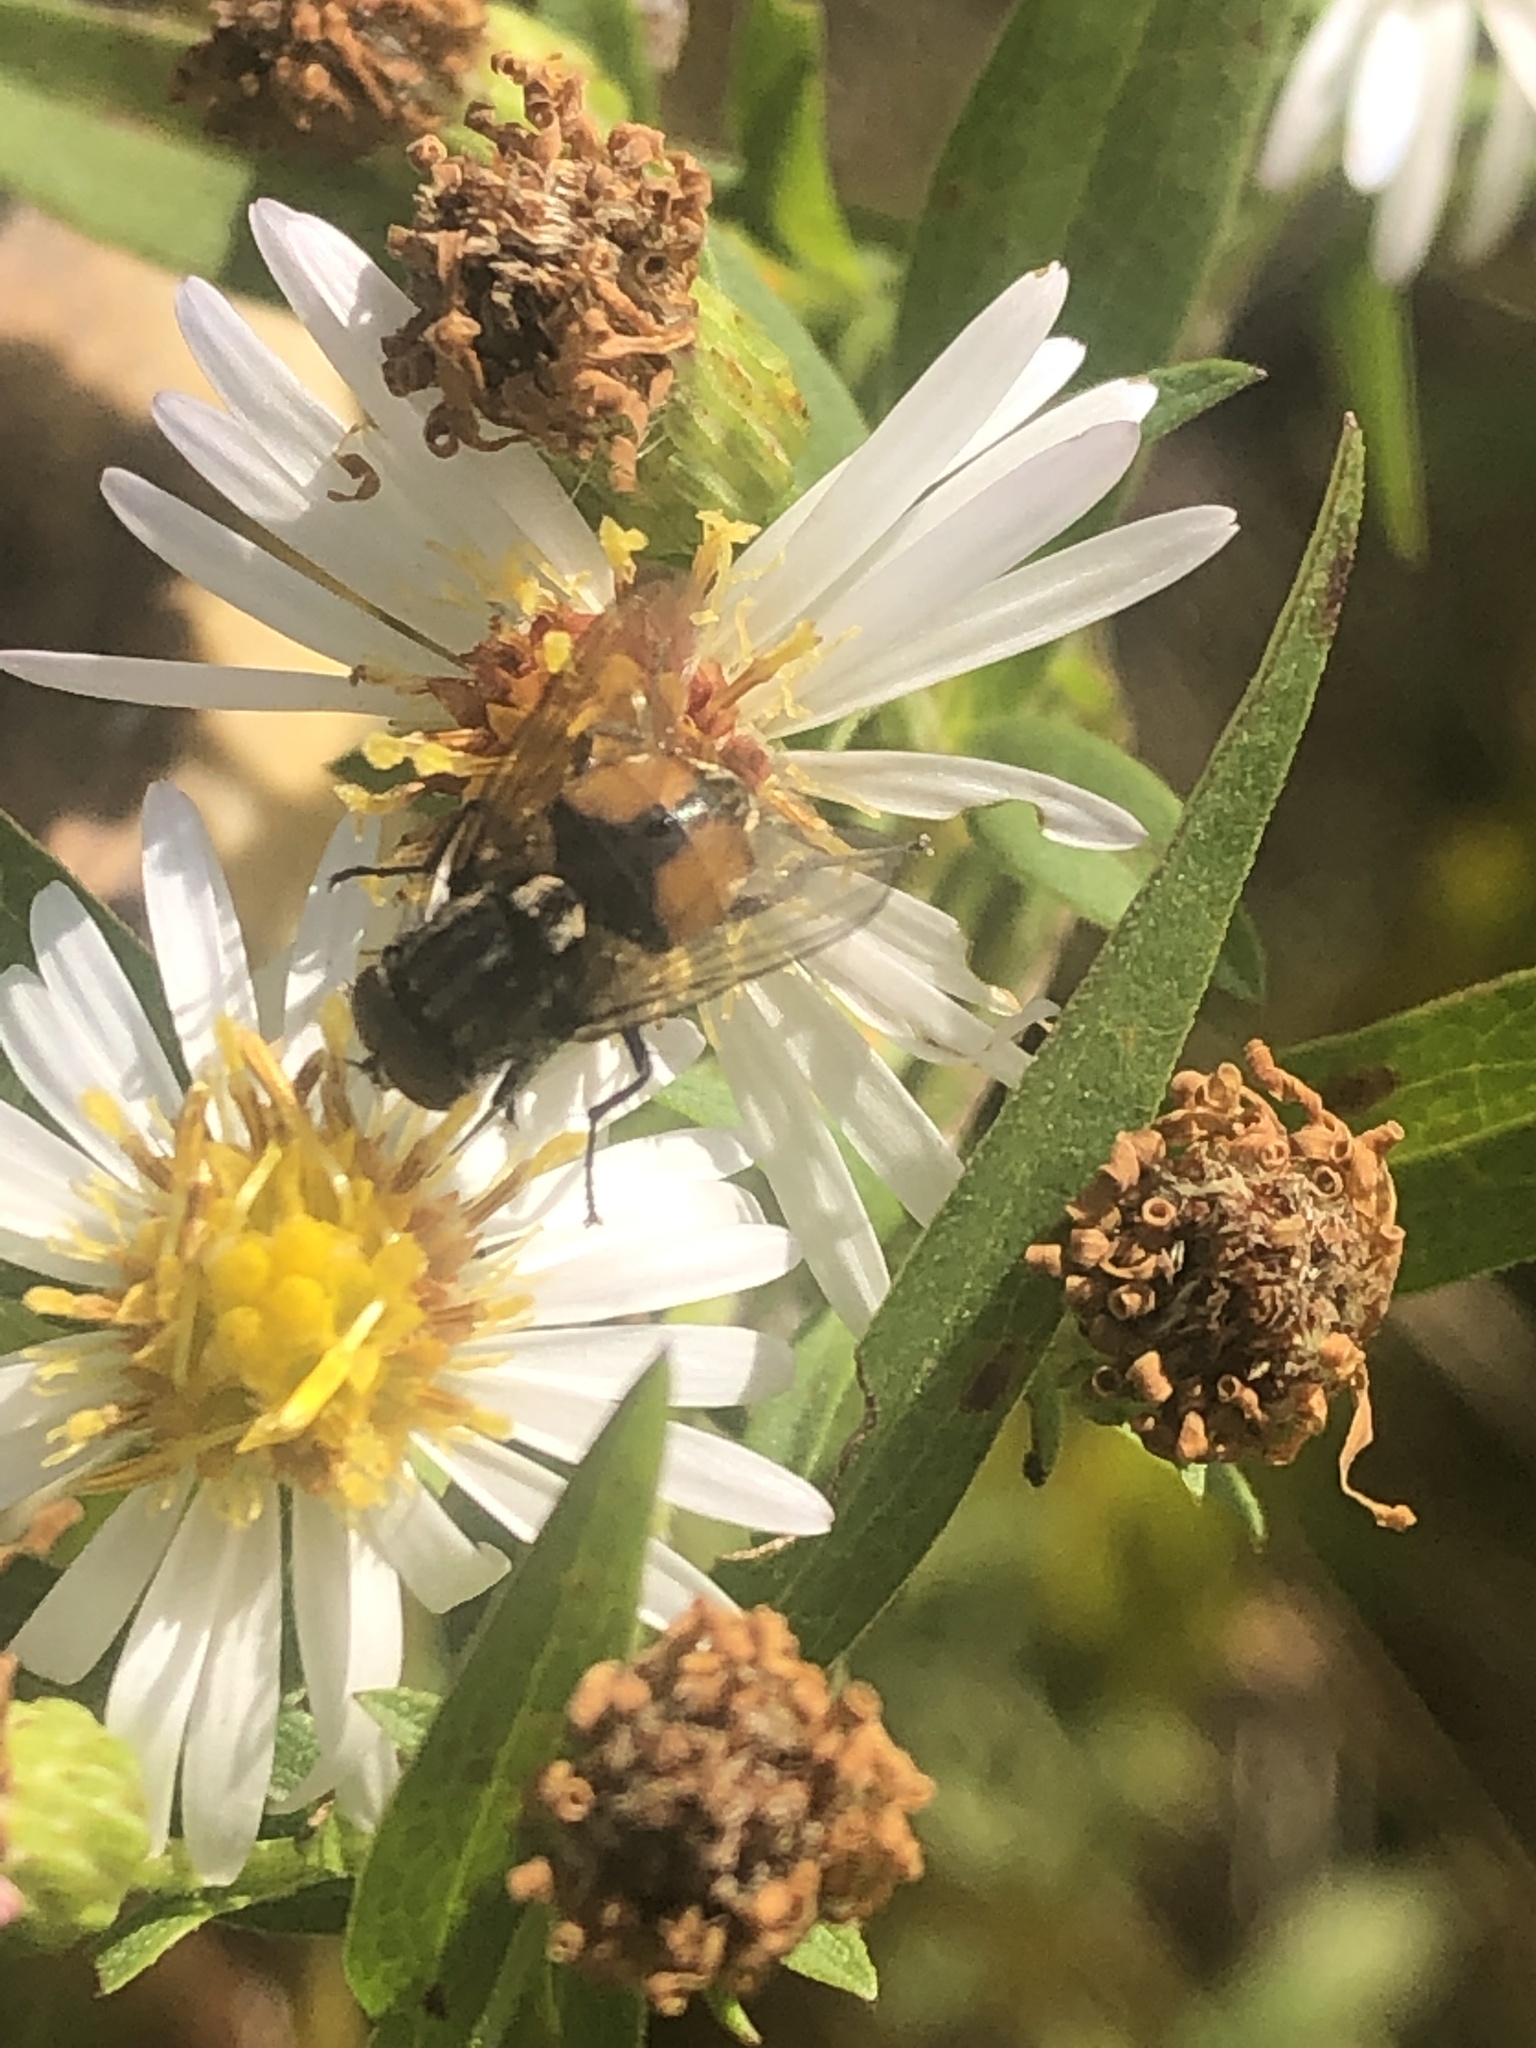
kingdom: Animalia
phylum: Arthropoda
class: Insecta
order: Diptera
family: Muscidae
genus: Musca
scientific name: Musca autumnalis
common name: Face fly
